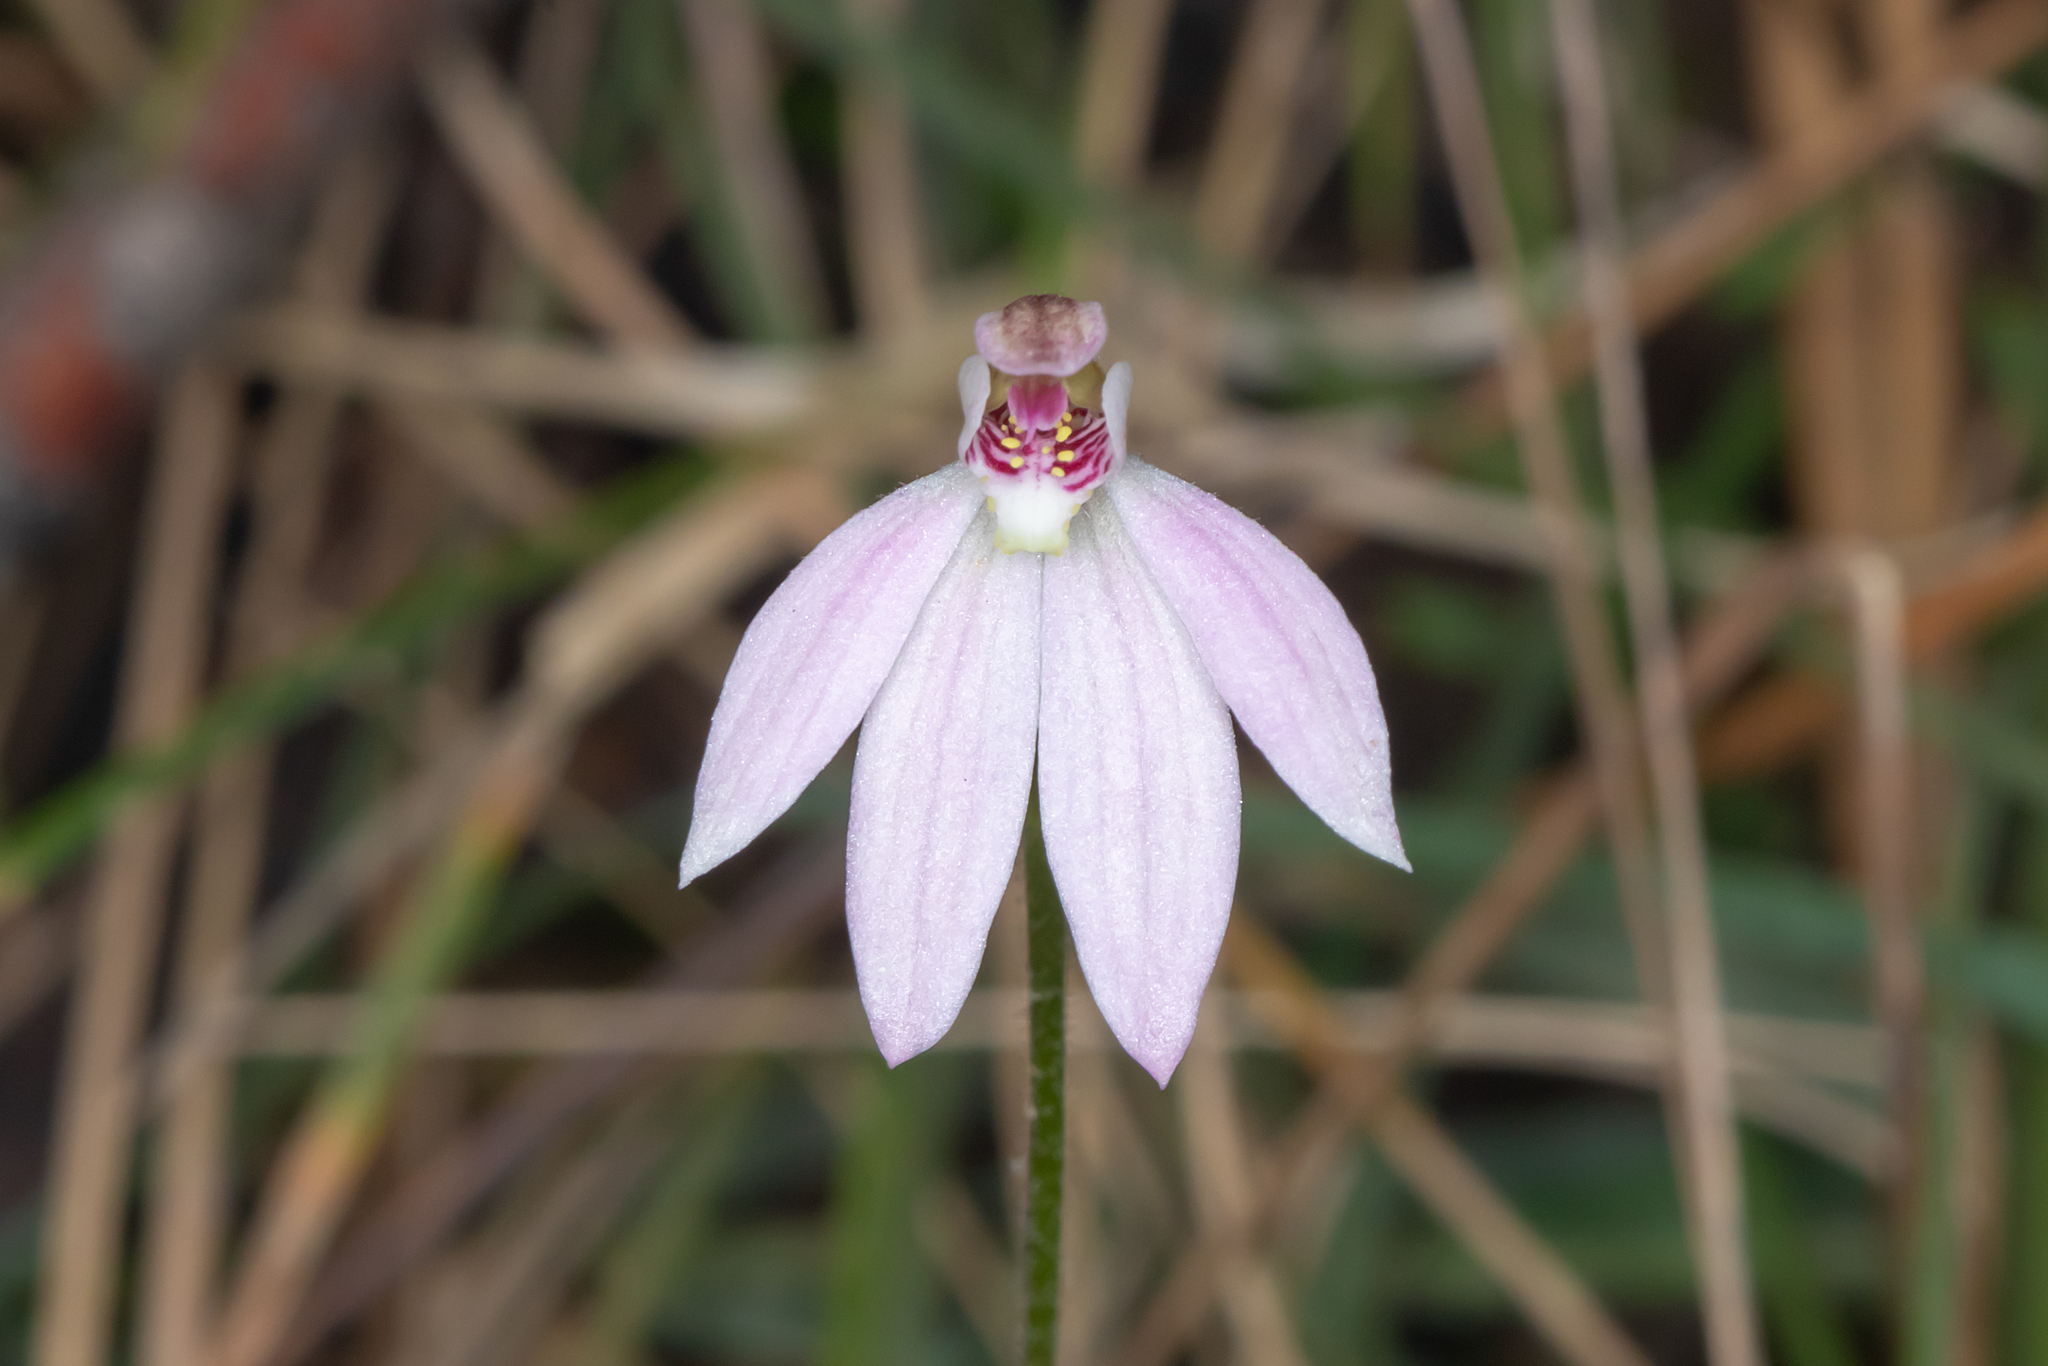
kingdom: Plantae
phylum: Tracheophyta
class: Liliopsida
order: Asparagales
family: Orchidaceae
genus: Caladenia
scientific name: Caladenia carnea
